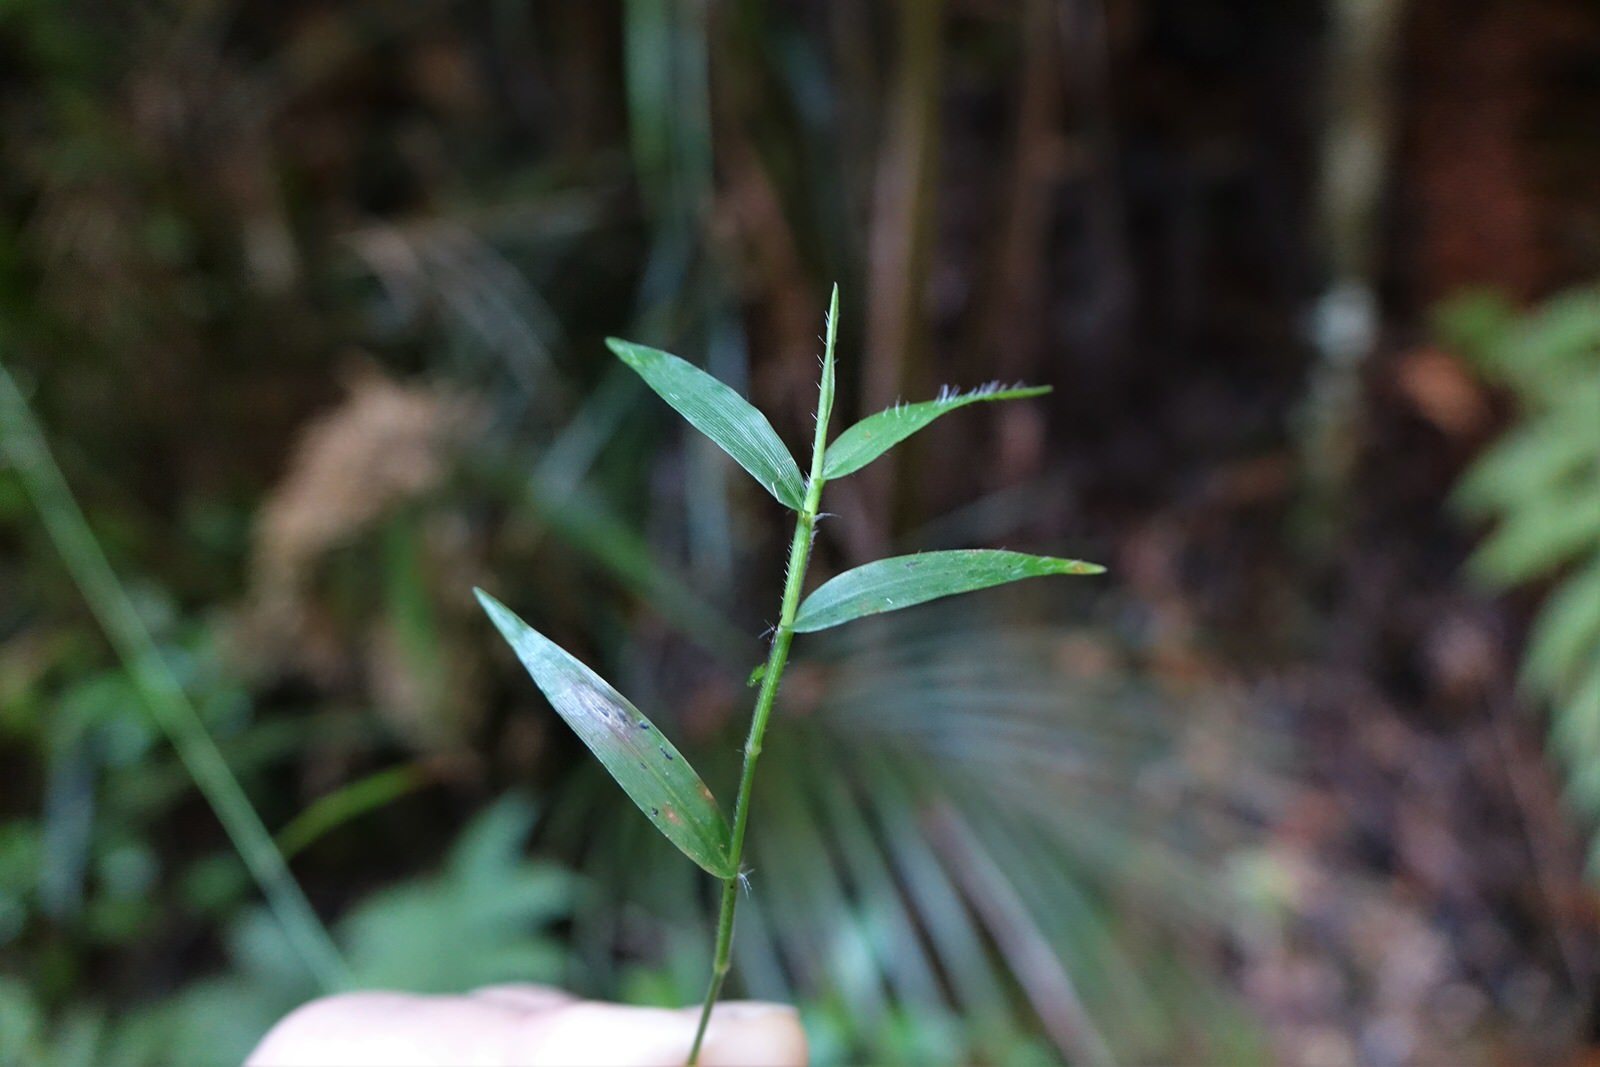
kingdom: Plantae
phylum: Tracheophyta
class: Liliopsida
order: Poales
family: Poaceae
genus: Oplismenus
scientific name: Oplismenus hirtellus
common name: Basketgrass
